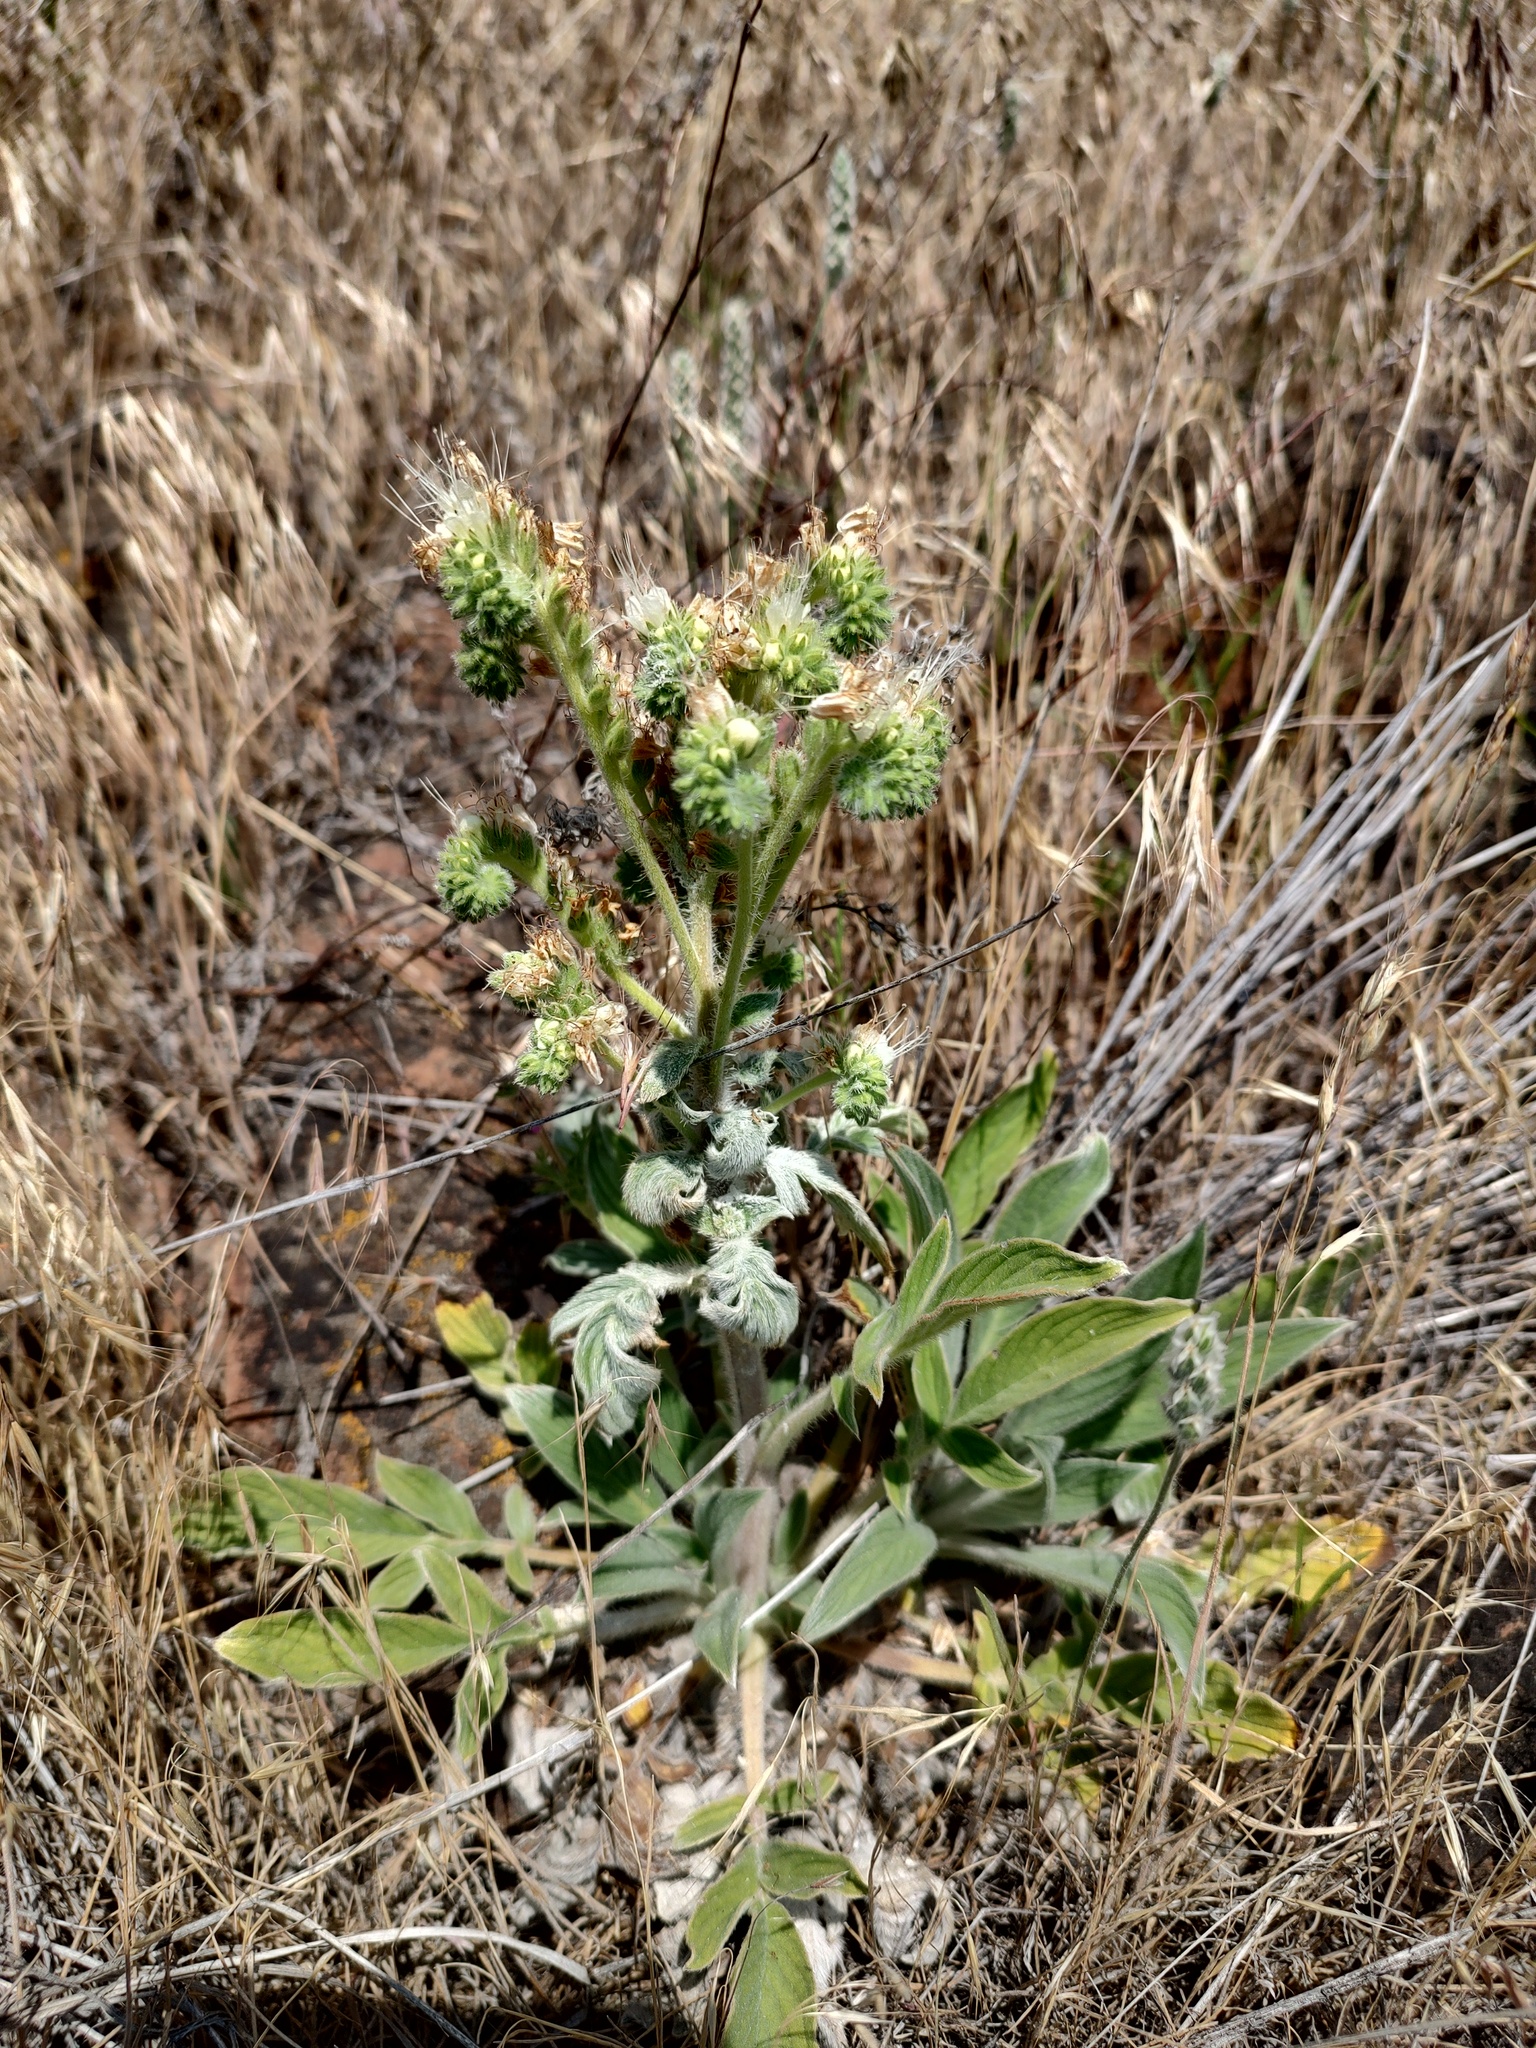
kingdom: Plantae
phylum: Tracheophyta
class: Magnoliopsida
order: Boraginales
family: Hydrophyllaceae
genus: Phacelia
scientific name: Phacelia heterophylla
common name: Variable-leaved phacelia
